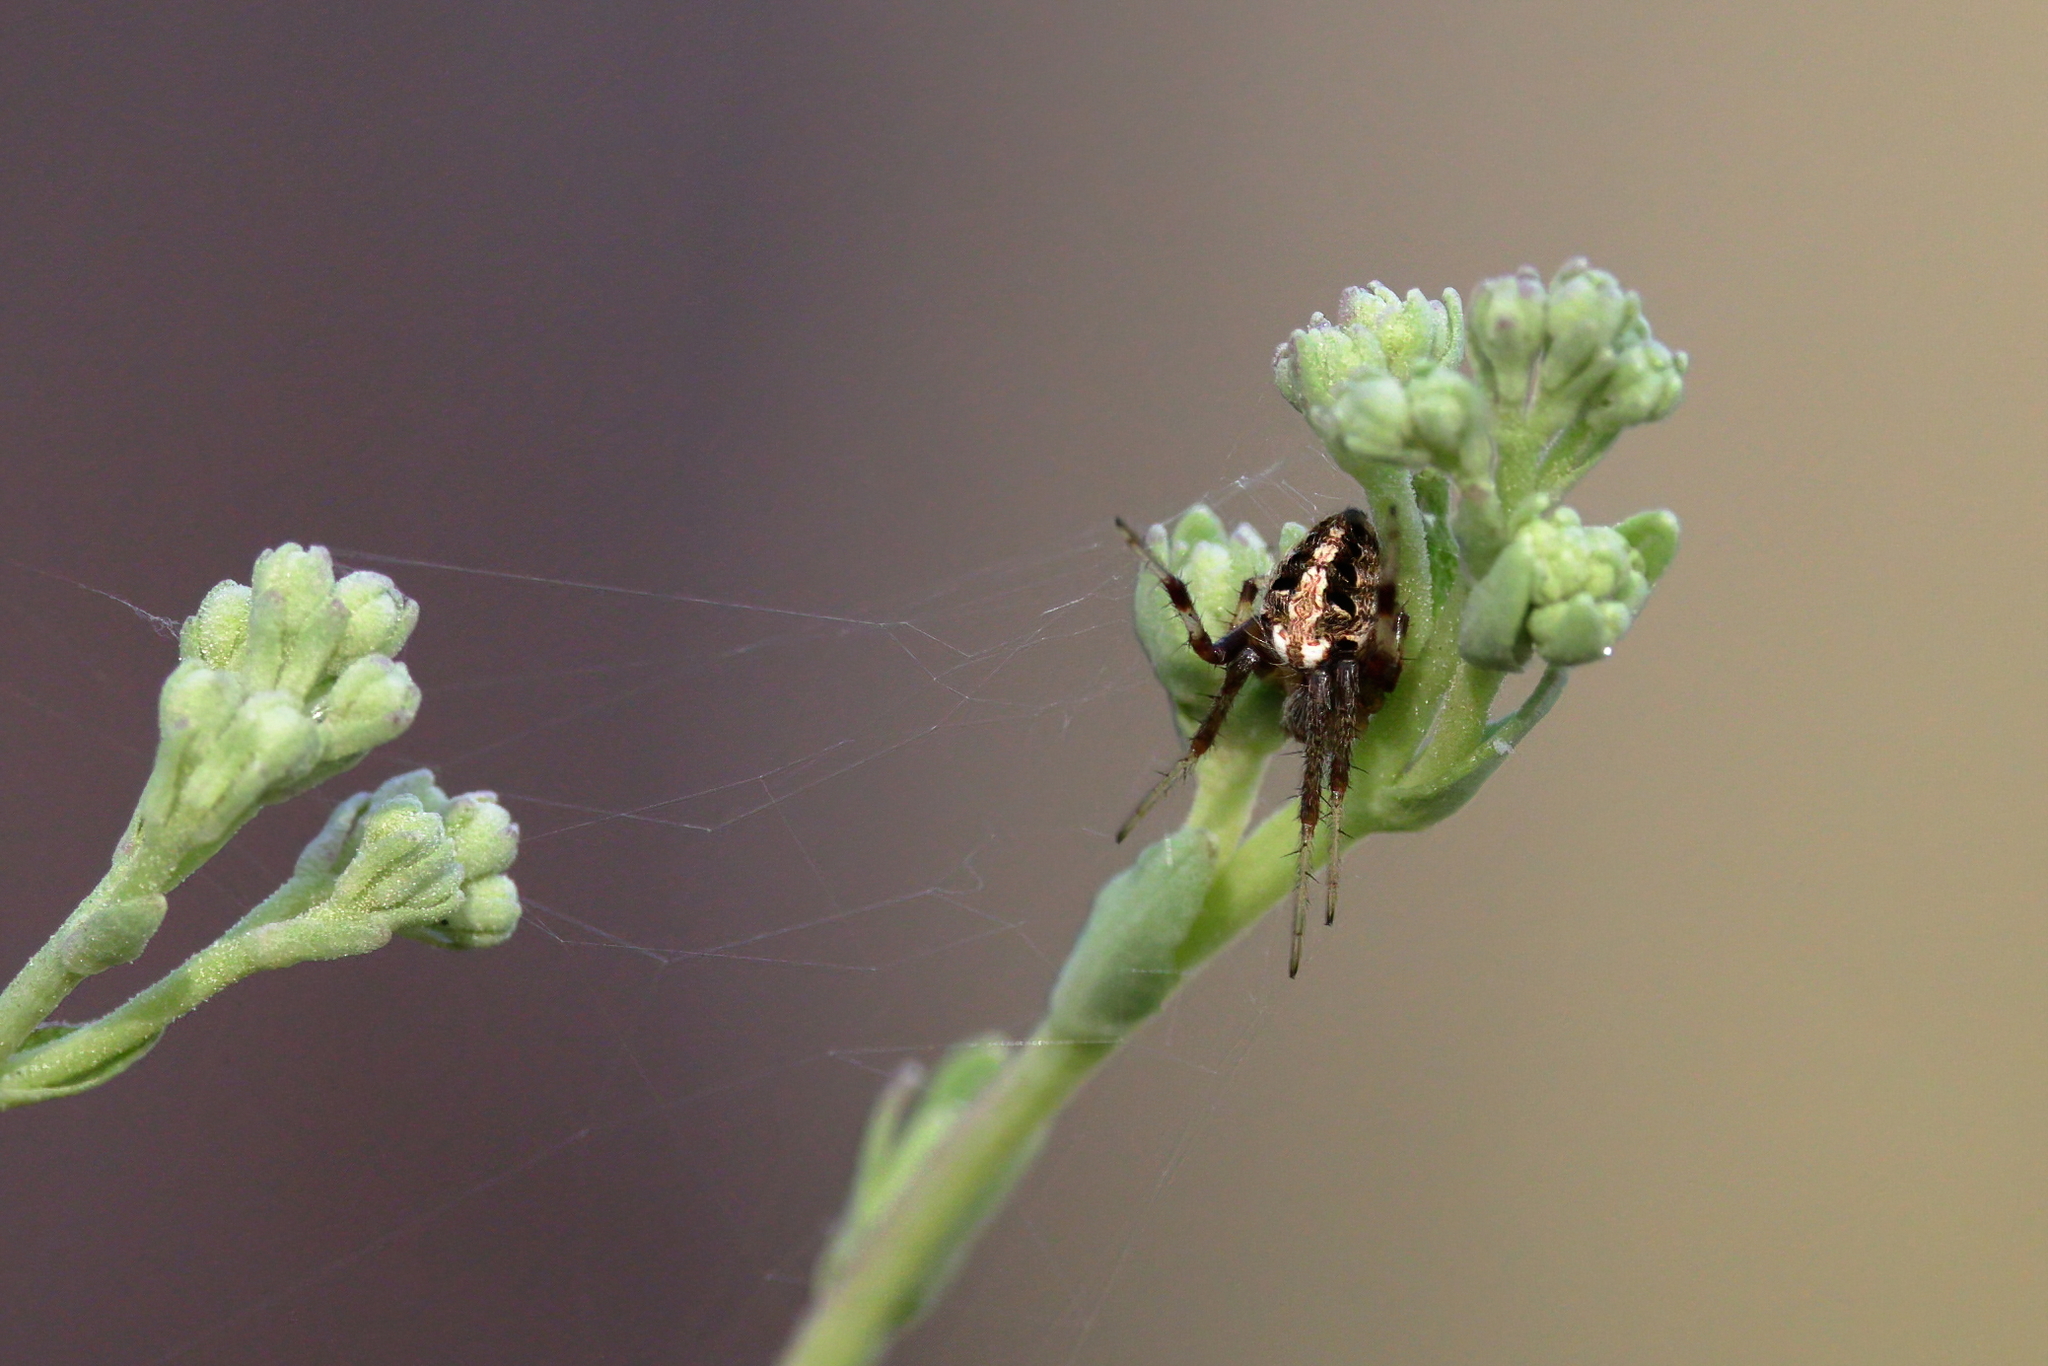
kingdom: Animalia
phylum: Arthropoda
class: Arachnida
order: Araneae
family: Araneidae
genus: Neoscona
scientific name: Neoscona arabesca
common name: Orb weavers
